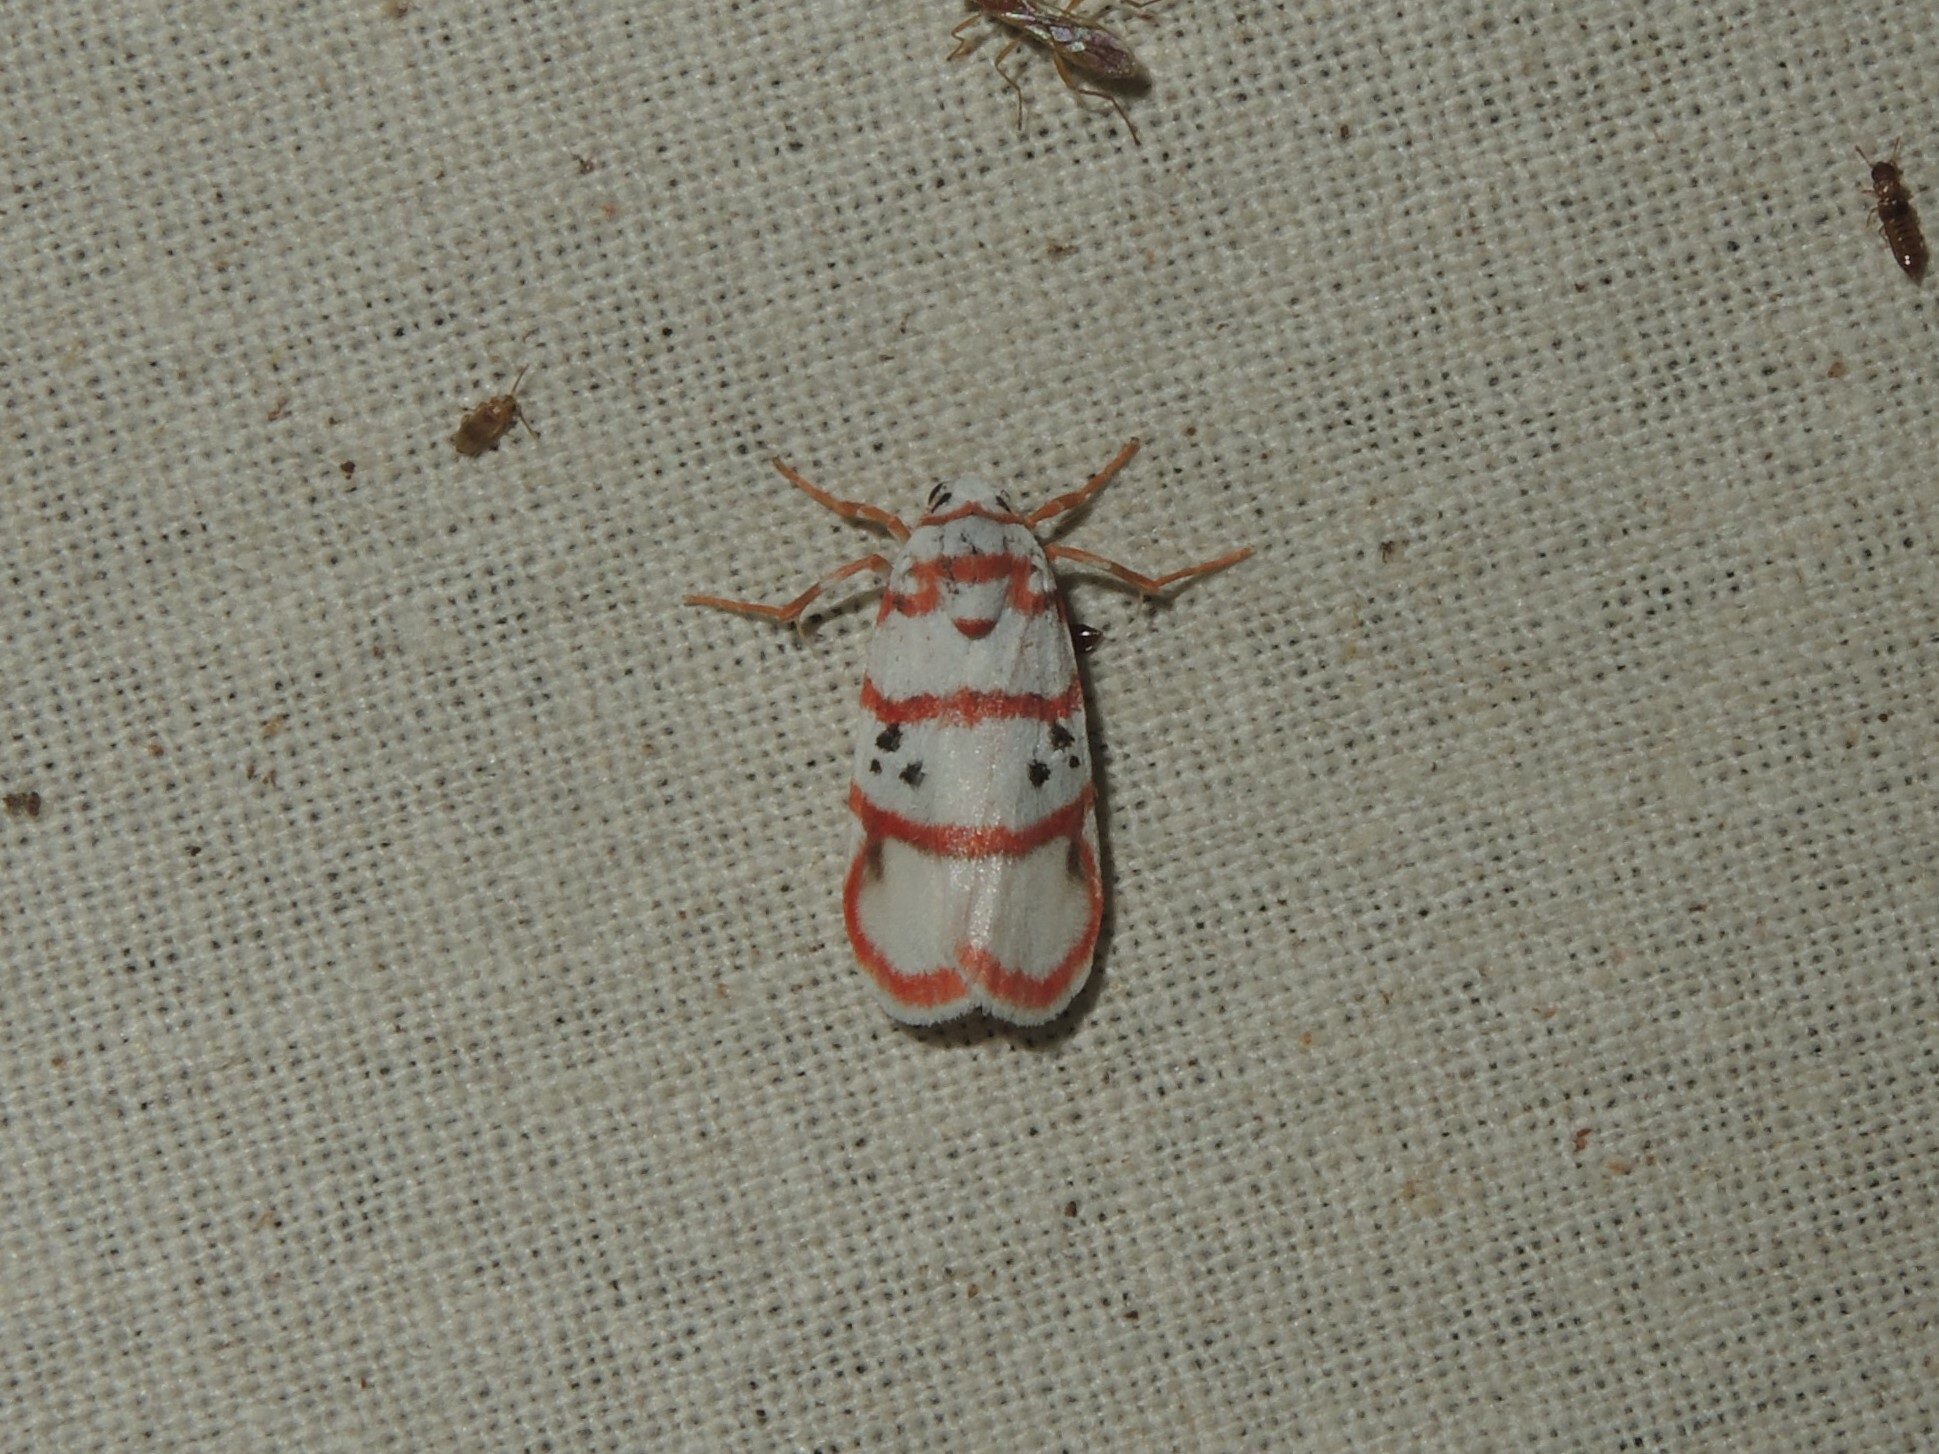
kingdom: Animalia
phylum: Arthropoda
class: Insecta
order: Lepidoptera
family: Erebidae
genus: Cyana
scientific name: Cyana peregrina
